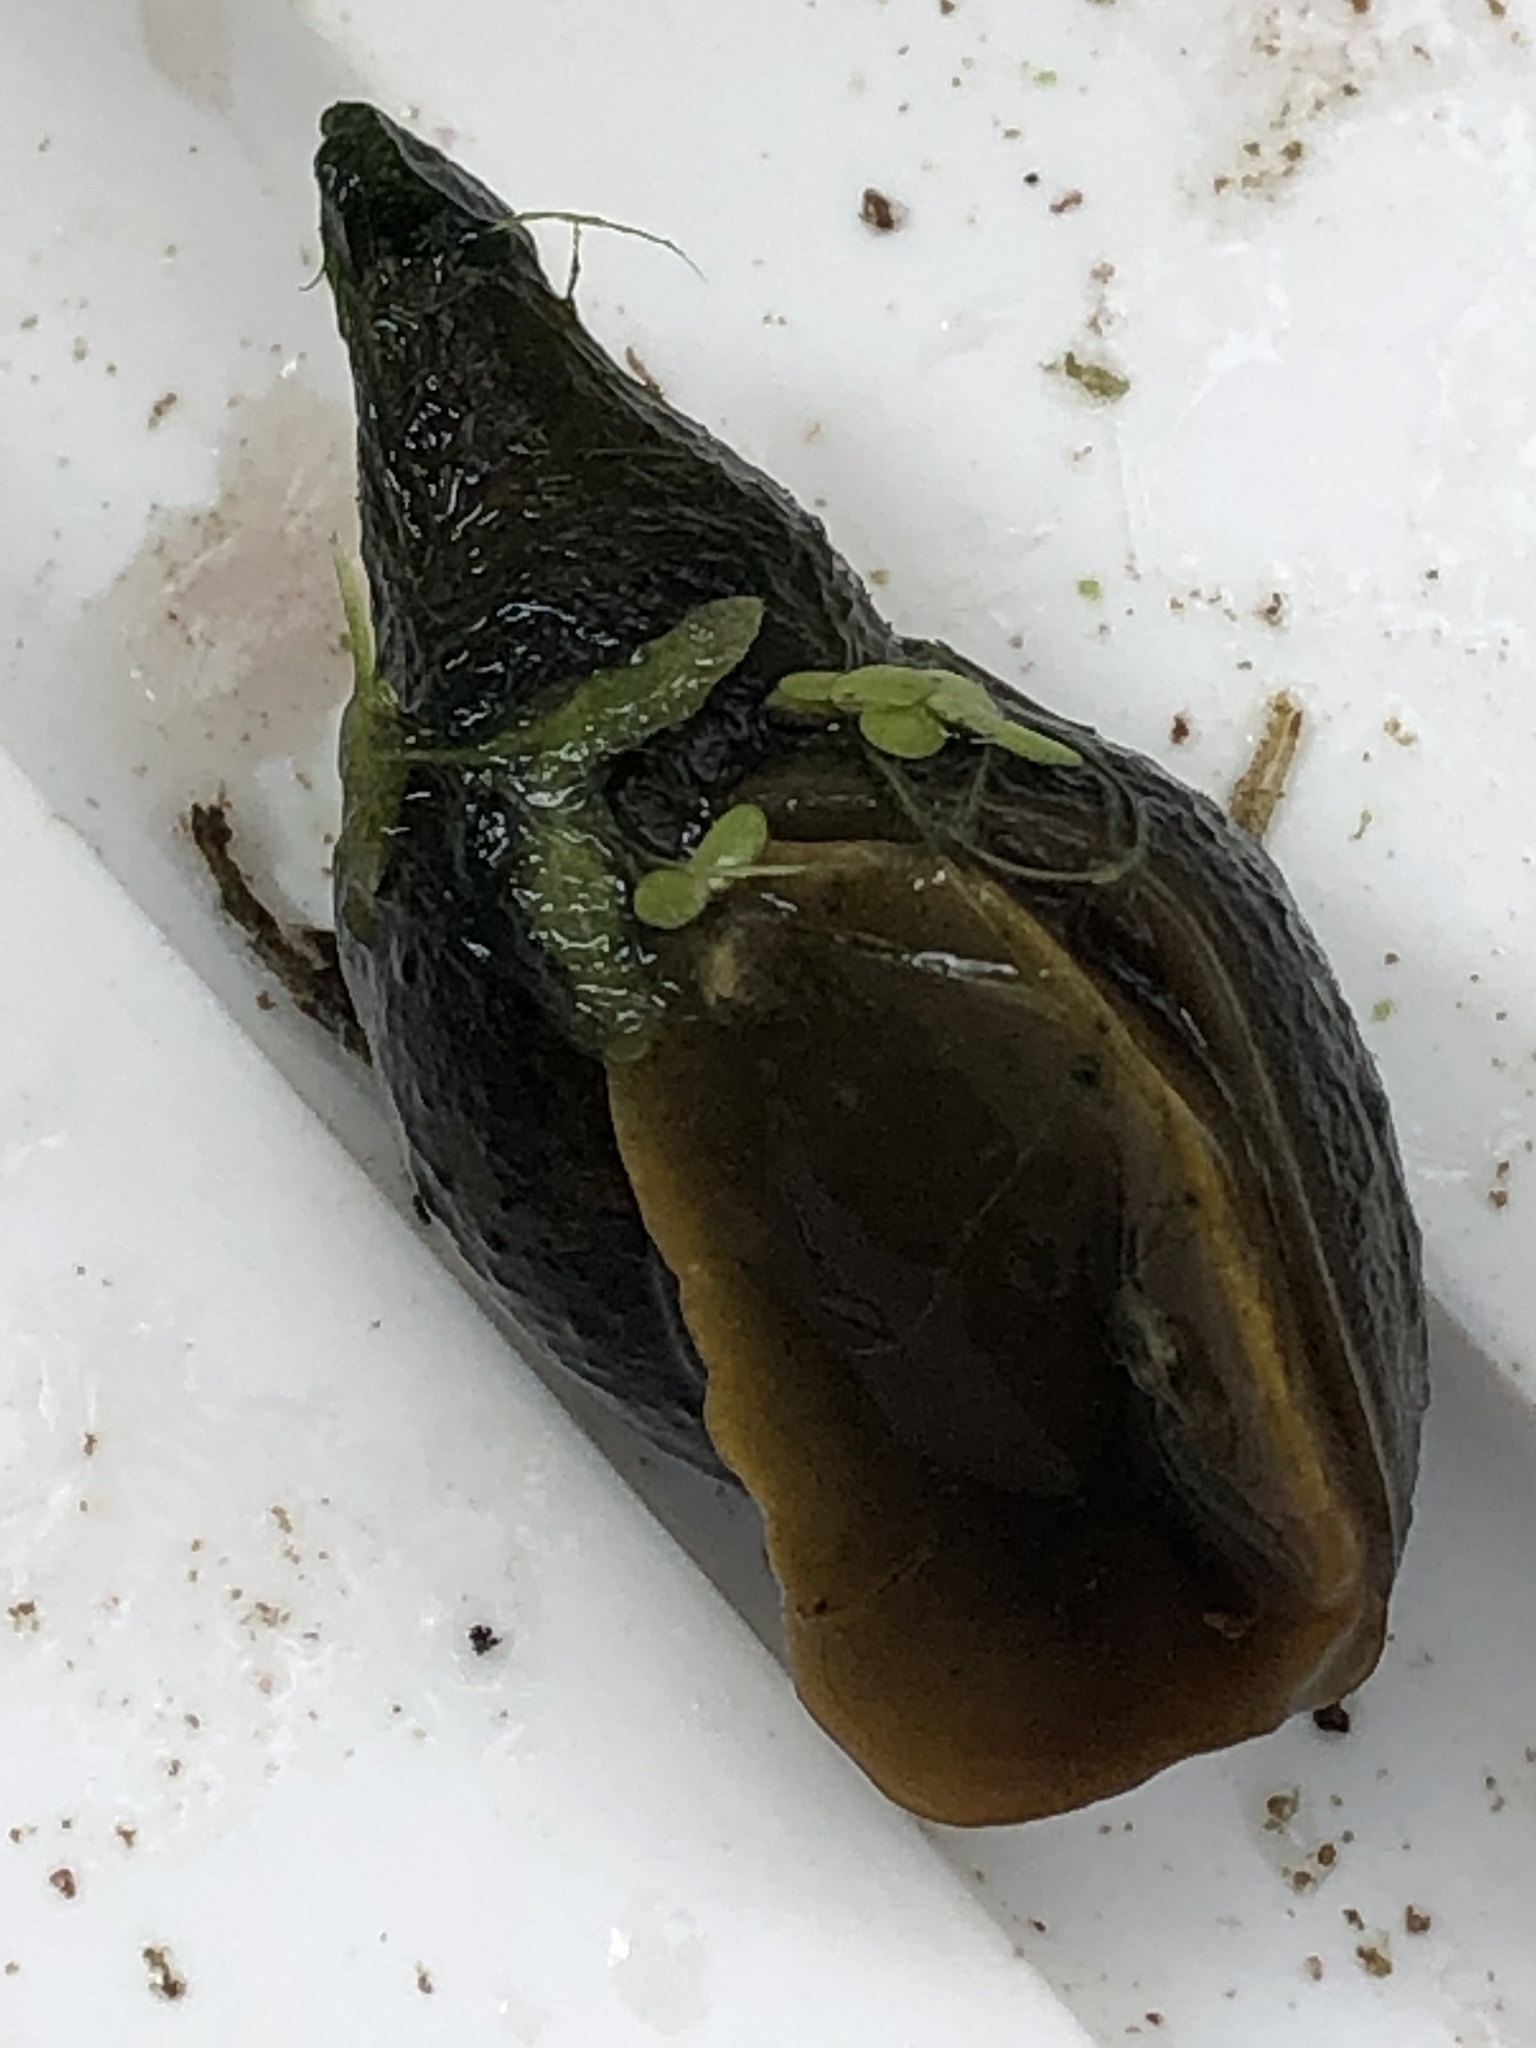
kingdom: Animalia
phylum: Mollusca
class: Gastropoda
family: Lymnaeidae
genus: Lymnaea
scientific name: Lymnaea stagnalis
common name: Great pond snail
